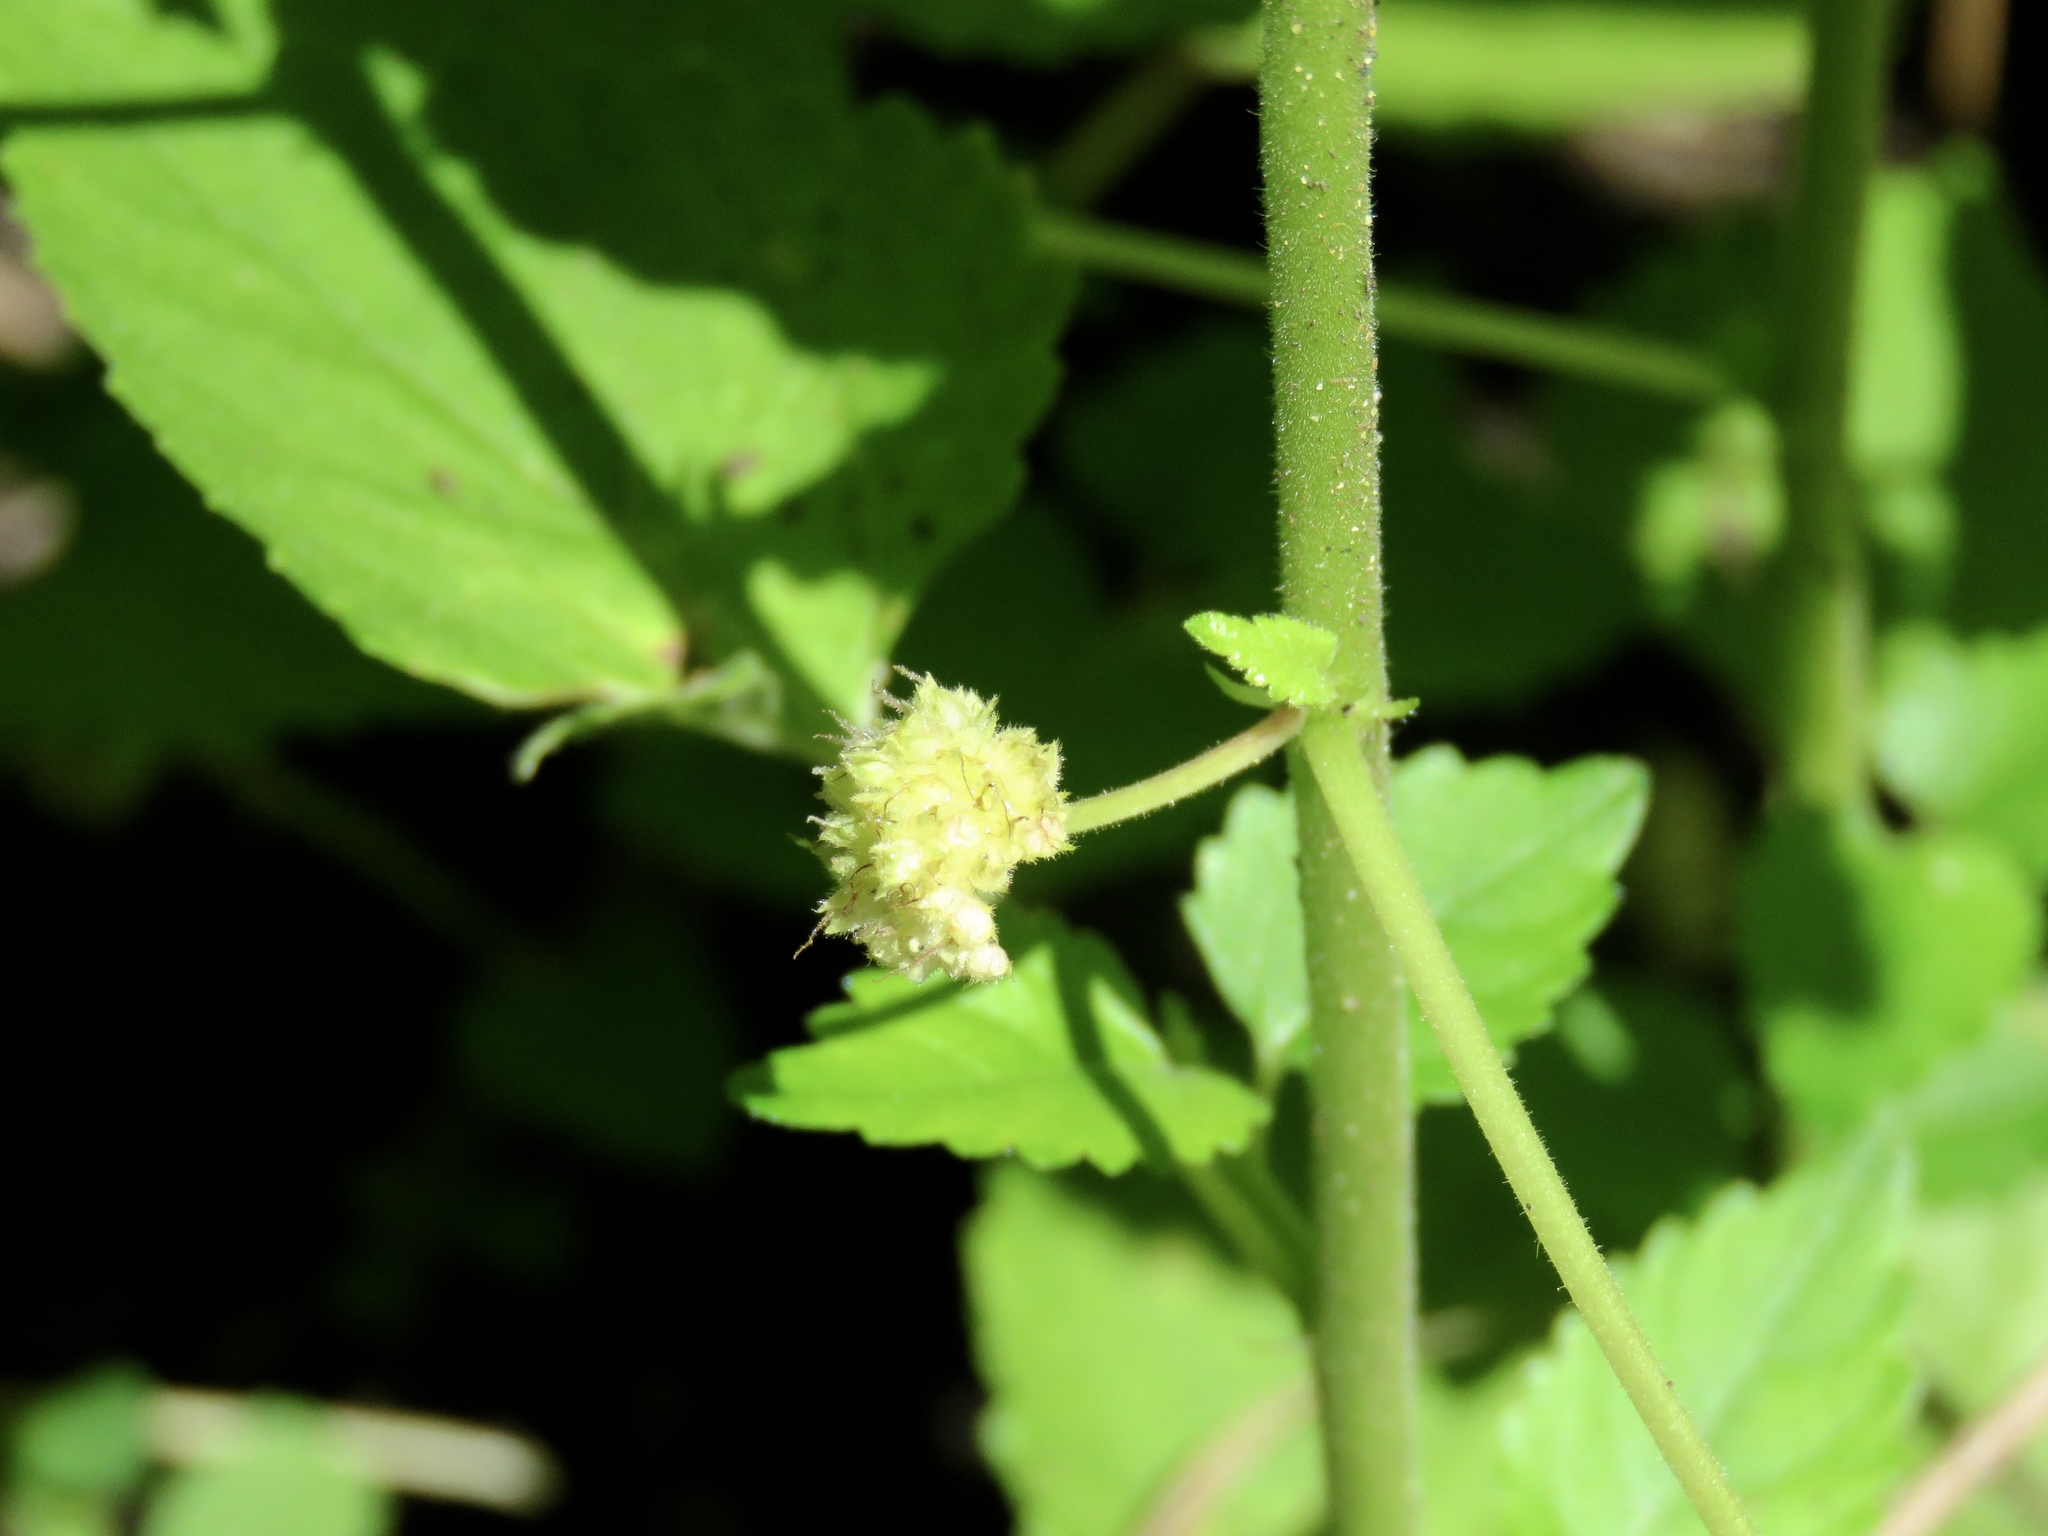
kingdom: Plantae
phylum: Tracheophyta
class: Magnoliopsida
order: Rosales
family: Moraceae
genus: Fatoua
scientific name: Fatoua villosa
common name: Hairy crabweed
